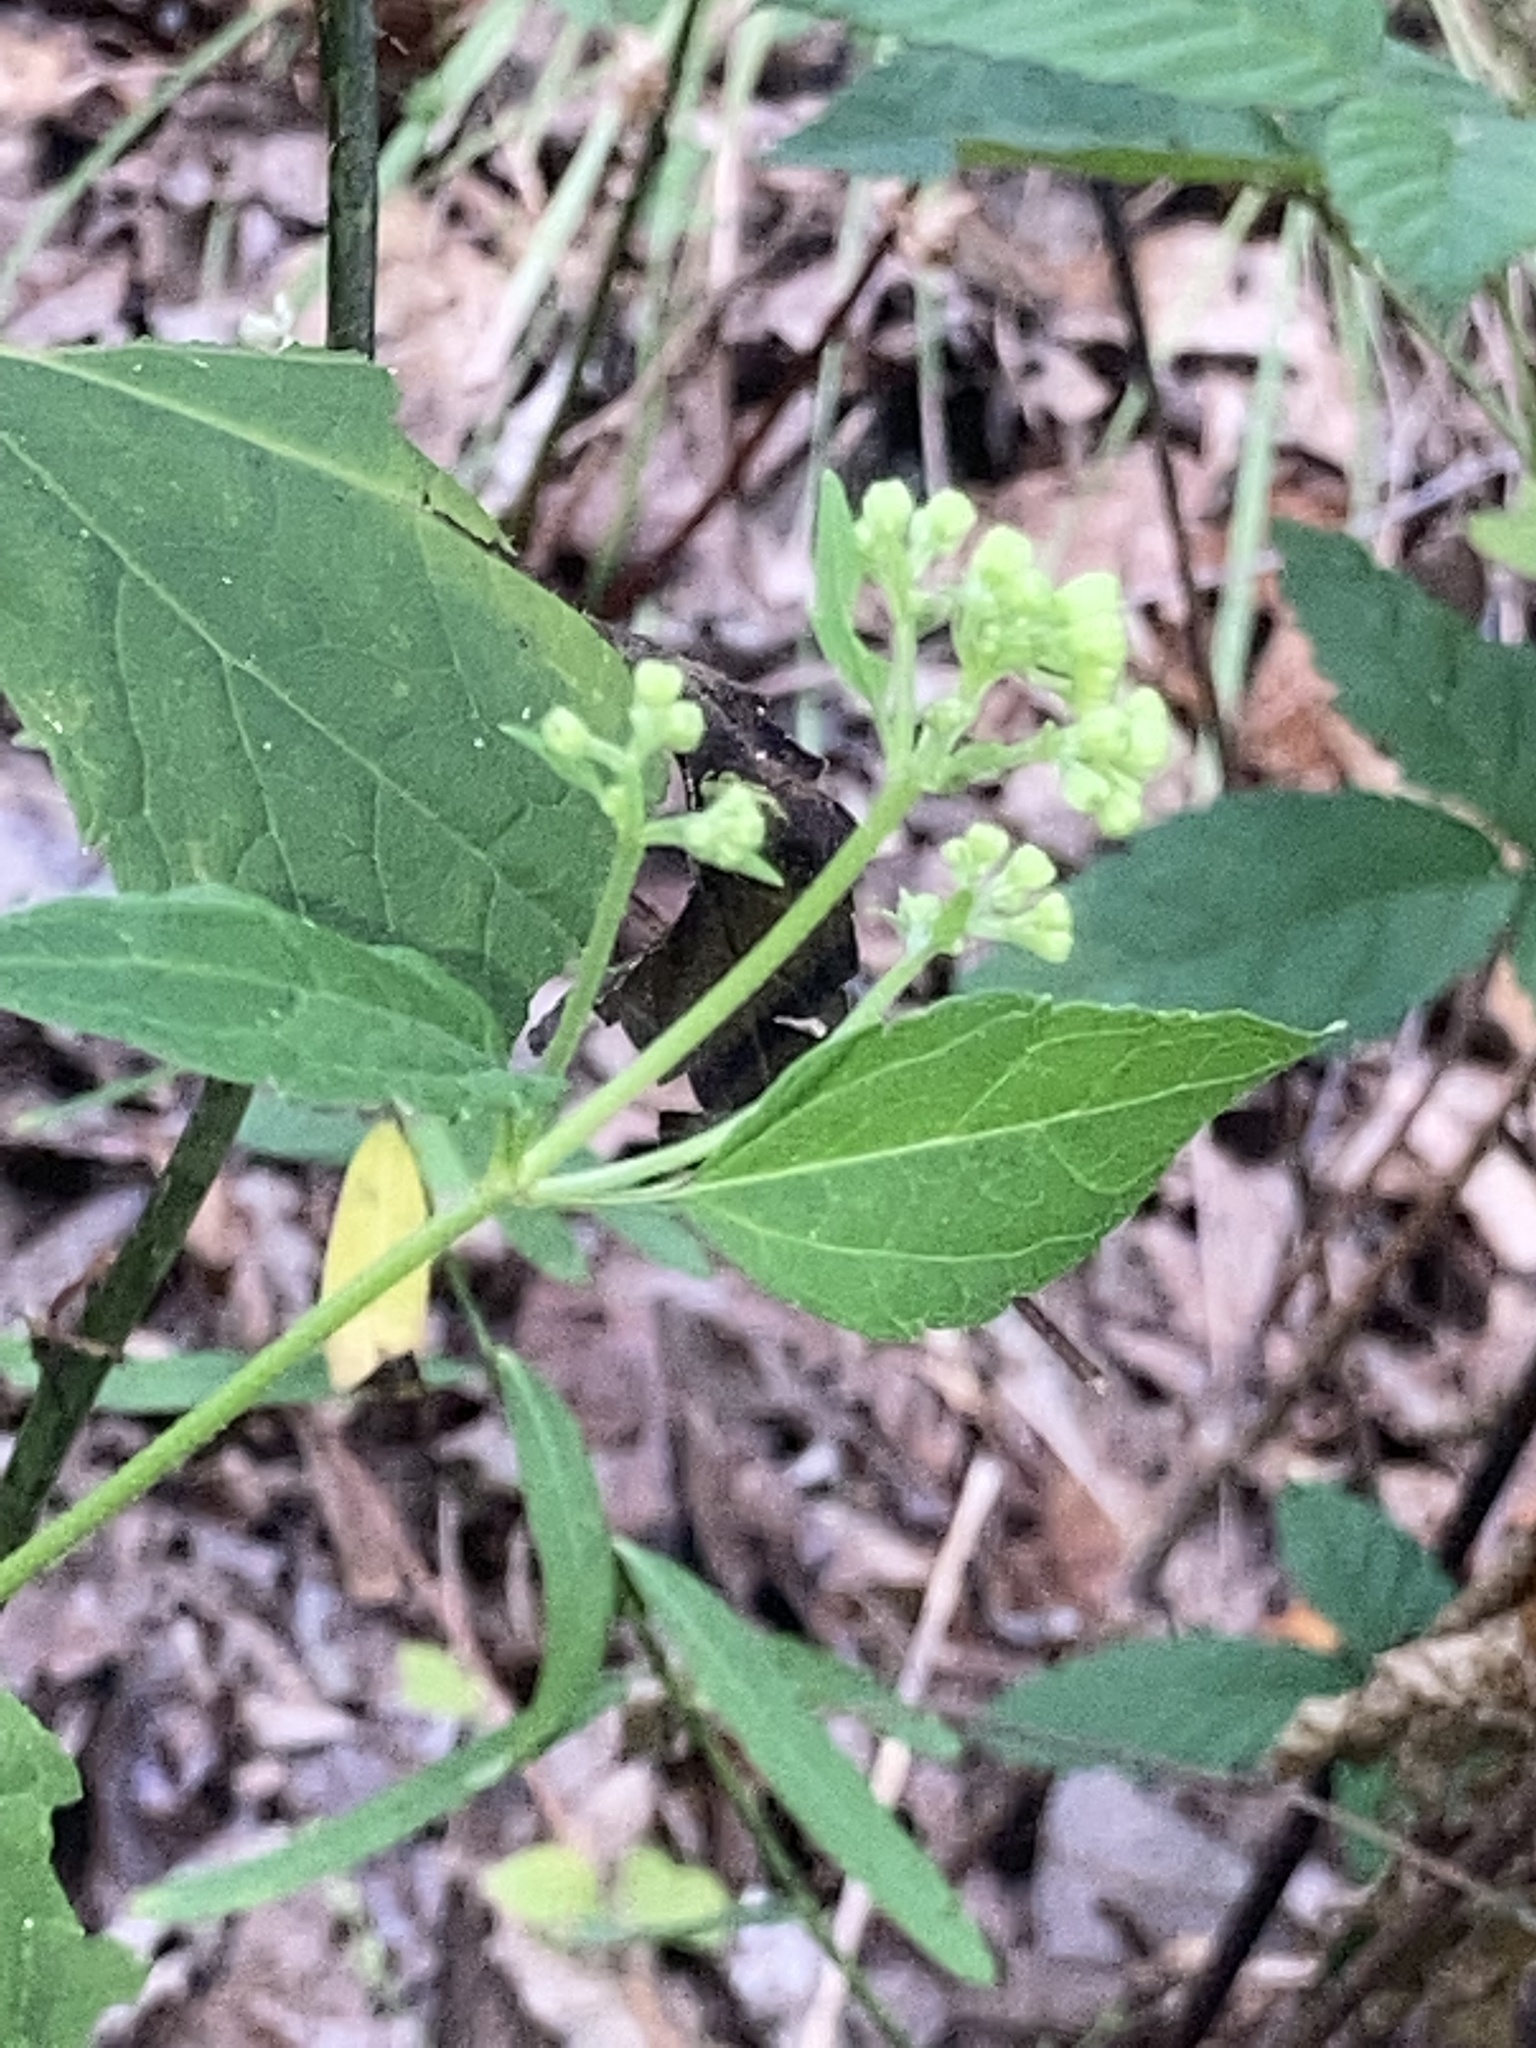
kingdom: Plantae
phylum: Tracheophyta
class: Magnoliopsida
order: Asterales
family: Asteraceae
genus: Ageratina
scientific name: Ageratina altissima
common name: White snakeroot
